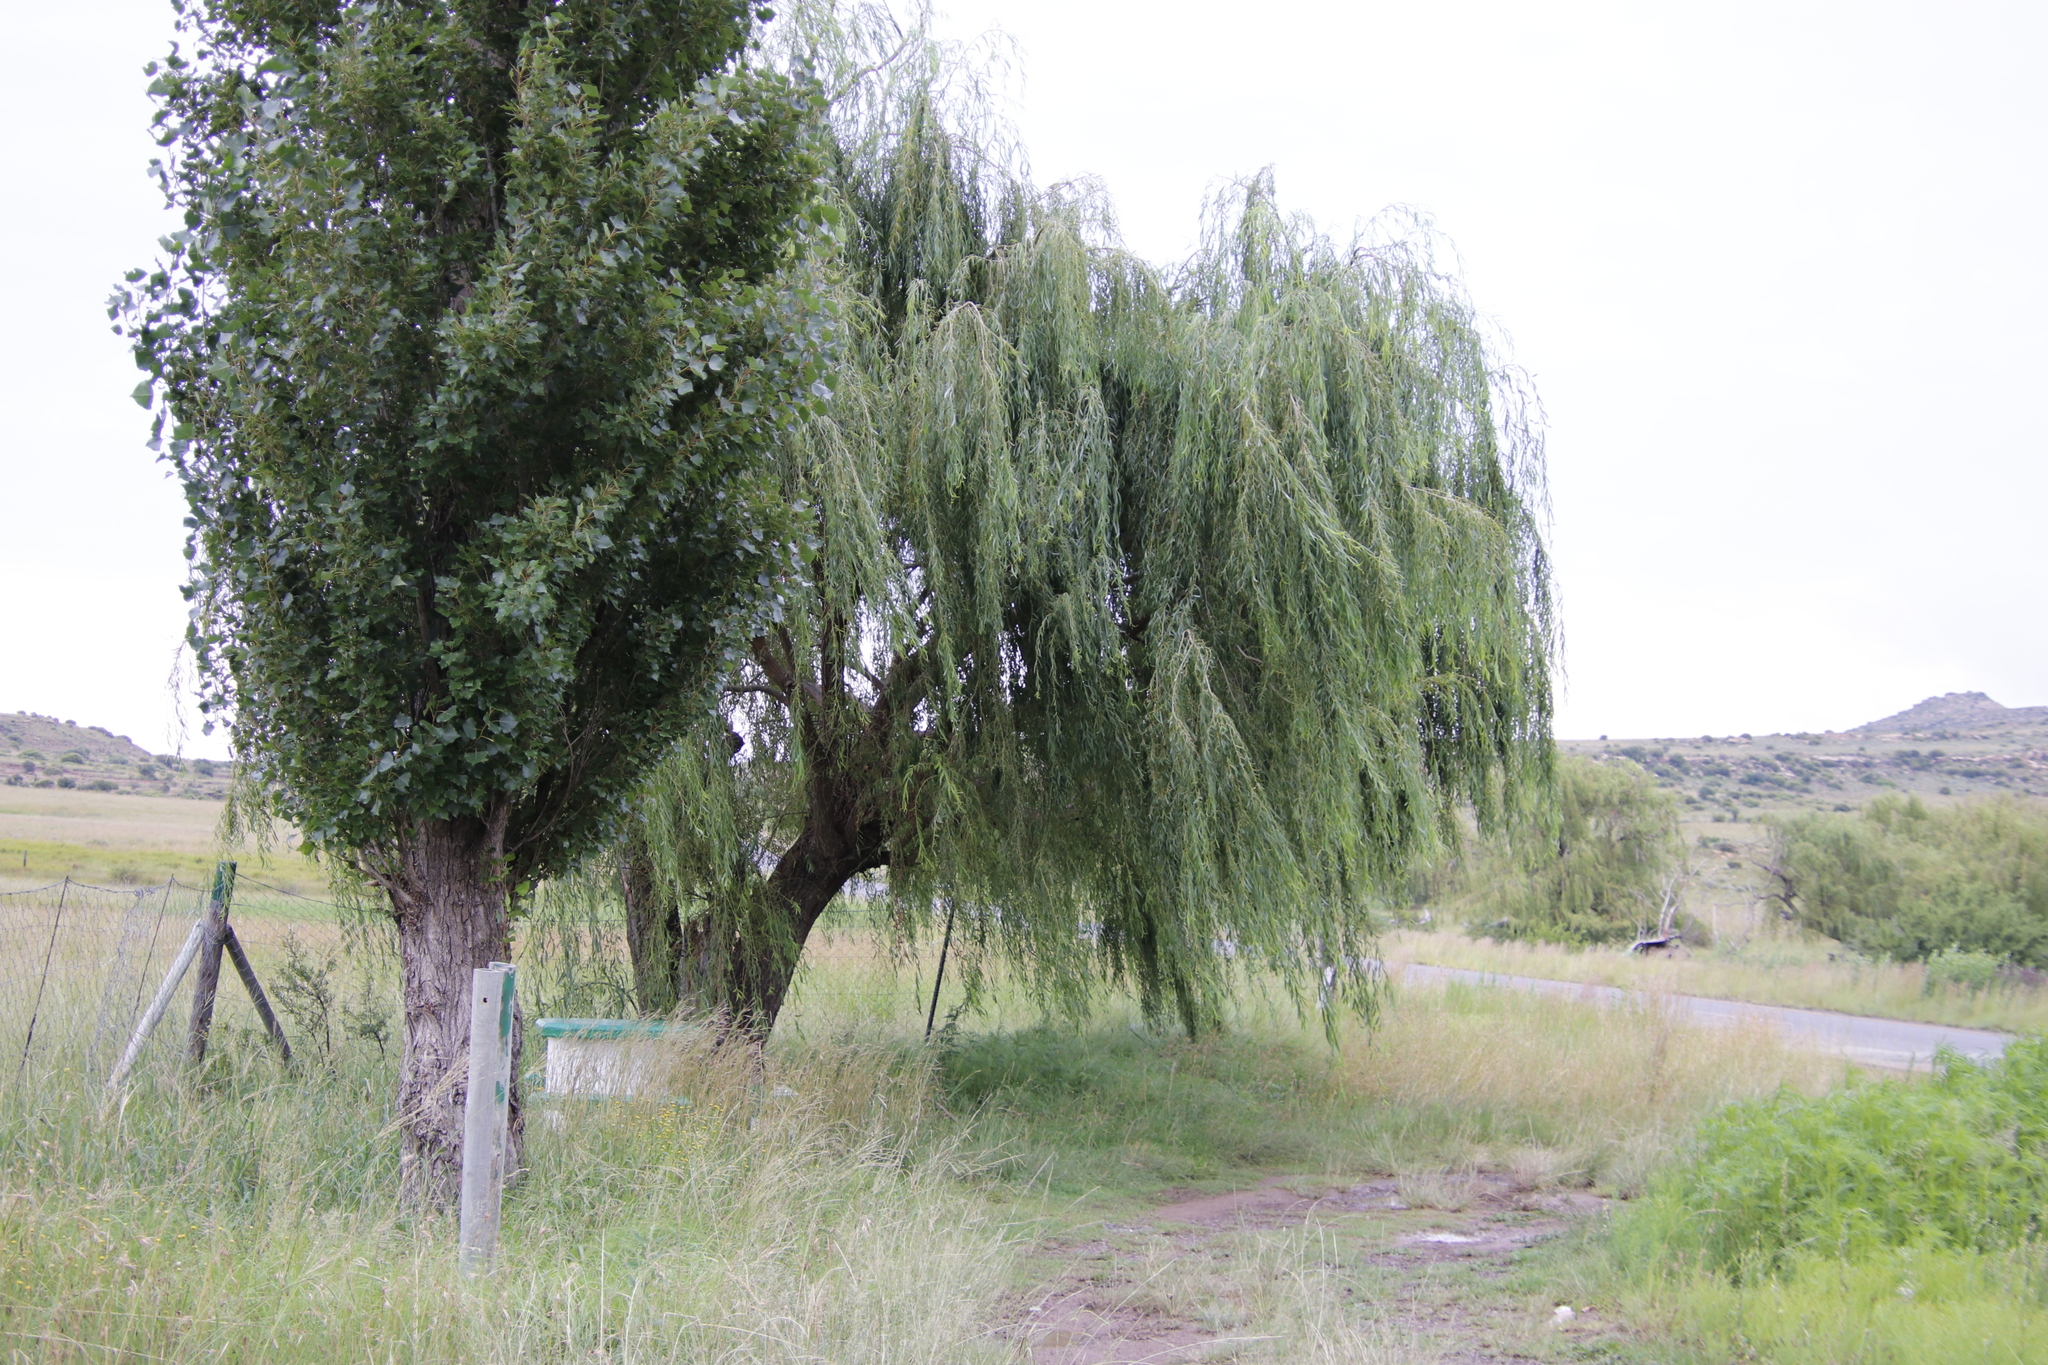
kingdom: Plantae
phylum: Tracheophyta
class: Magnoliopsida
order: Malpighiales
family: Salicaceae
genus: Salix
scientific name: Salix babylonica
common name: Weeping willow
